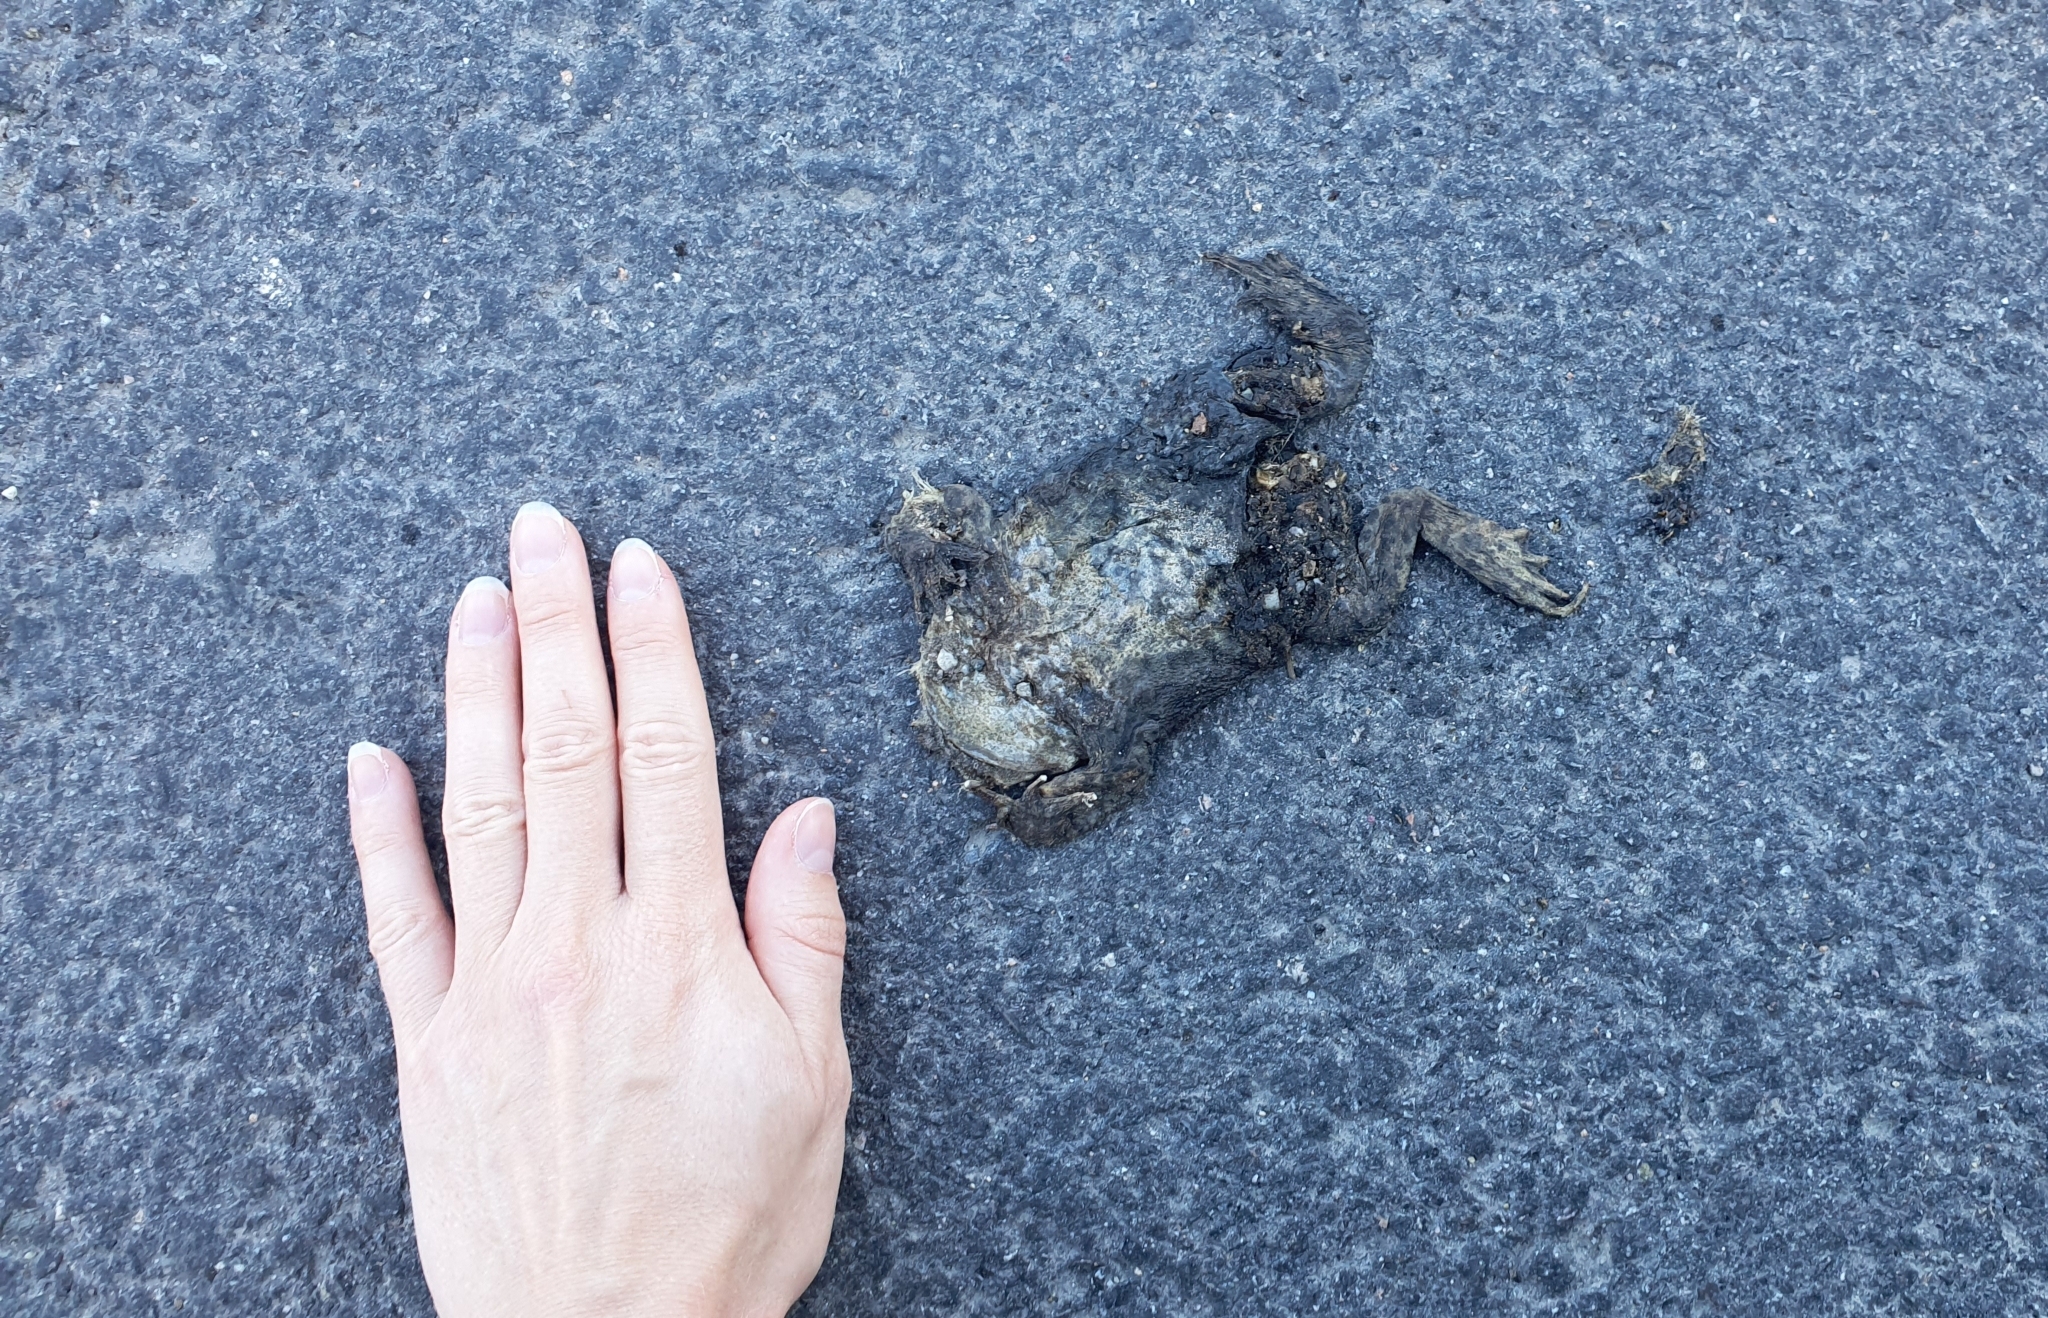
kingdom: Animalia
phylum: Chordata
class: Amphibia
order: Anura
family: Bufonidae
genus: Bufo
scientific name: Bufo bufo
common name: Common toad
